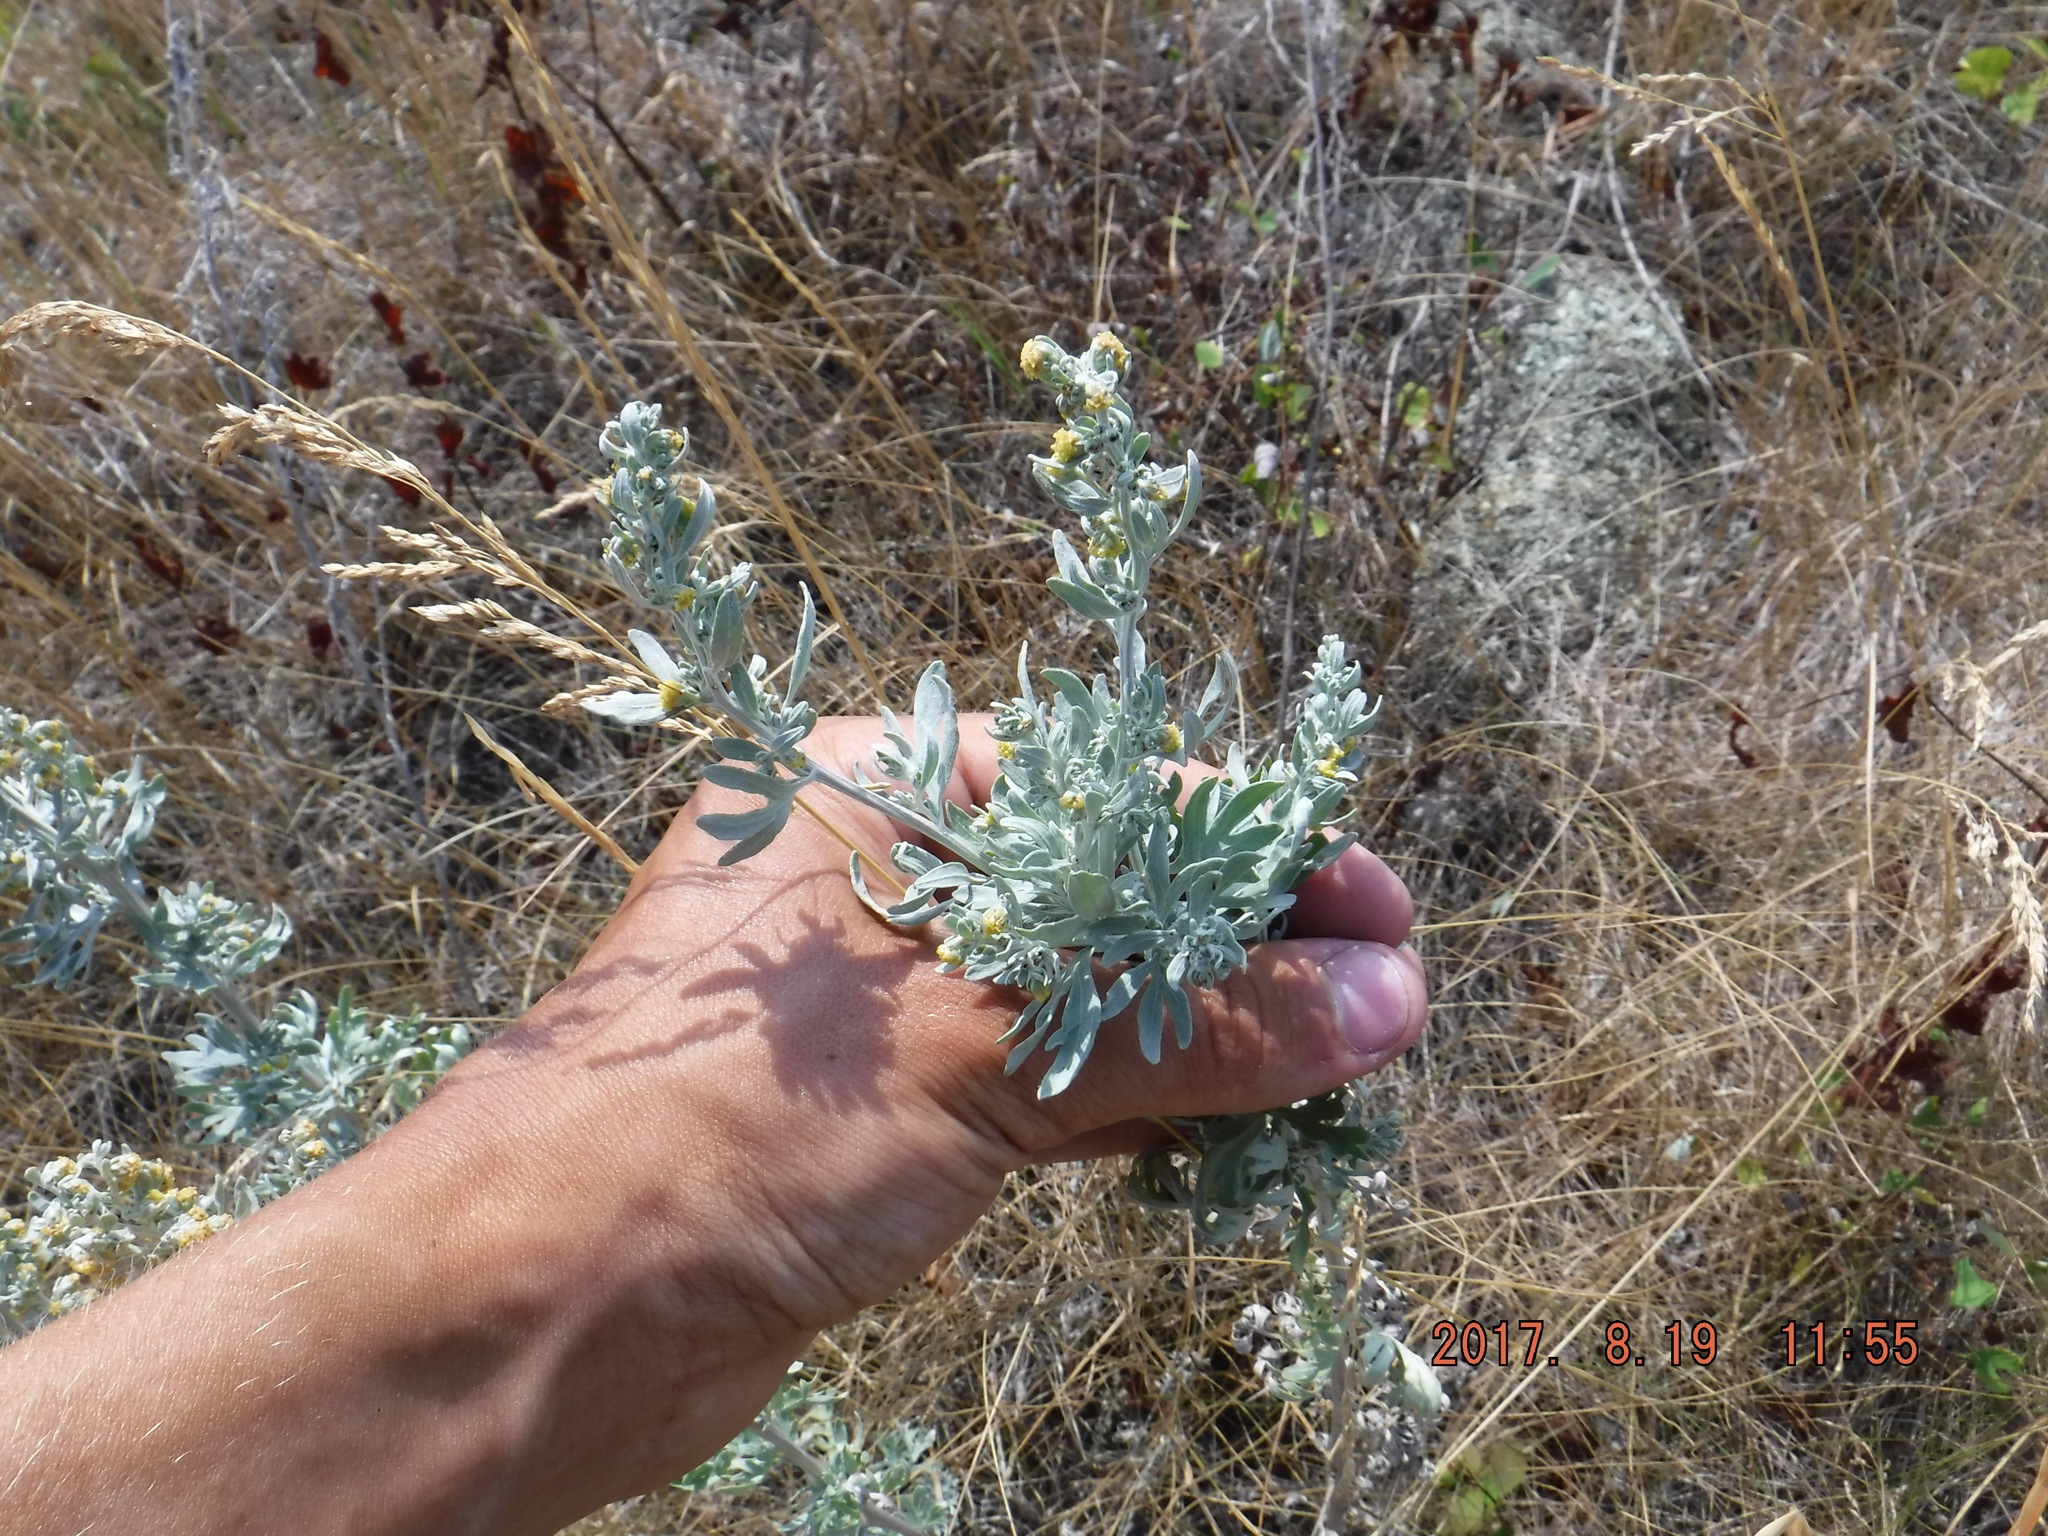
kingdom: Plantae
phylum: Tracheophyta
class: Magnoliopsida
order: Asterales
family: Asteraceae
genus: Artemisia
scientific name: Artemisia absinthium
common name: Wormwood
